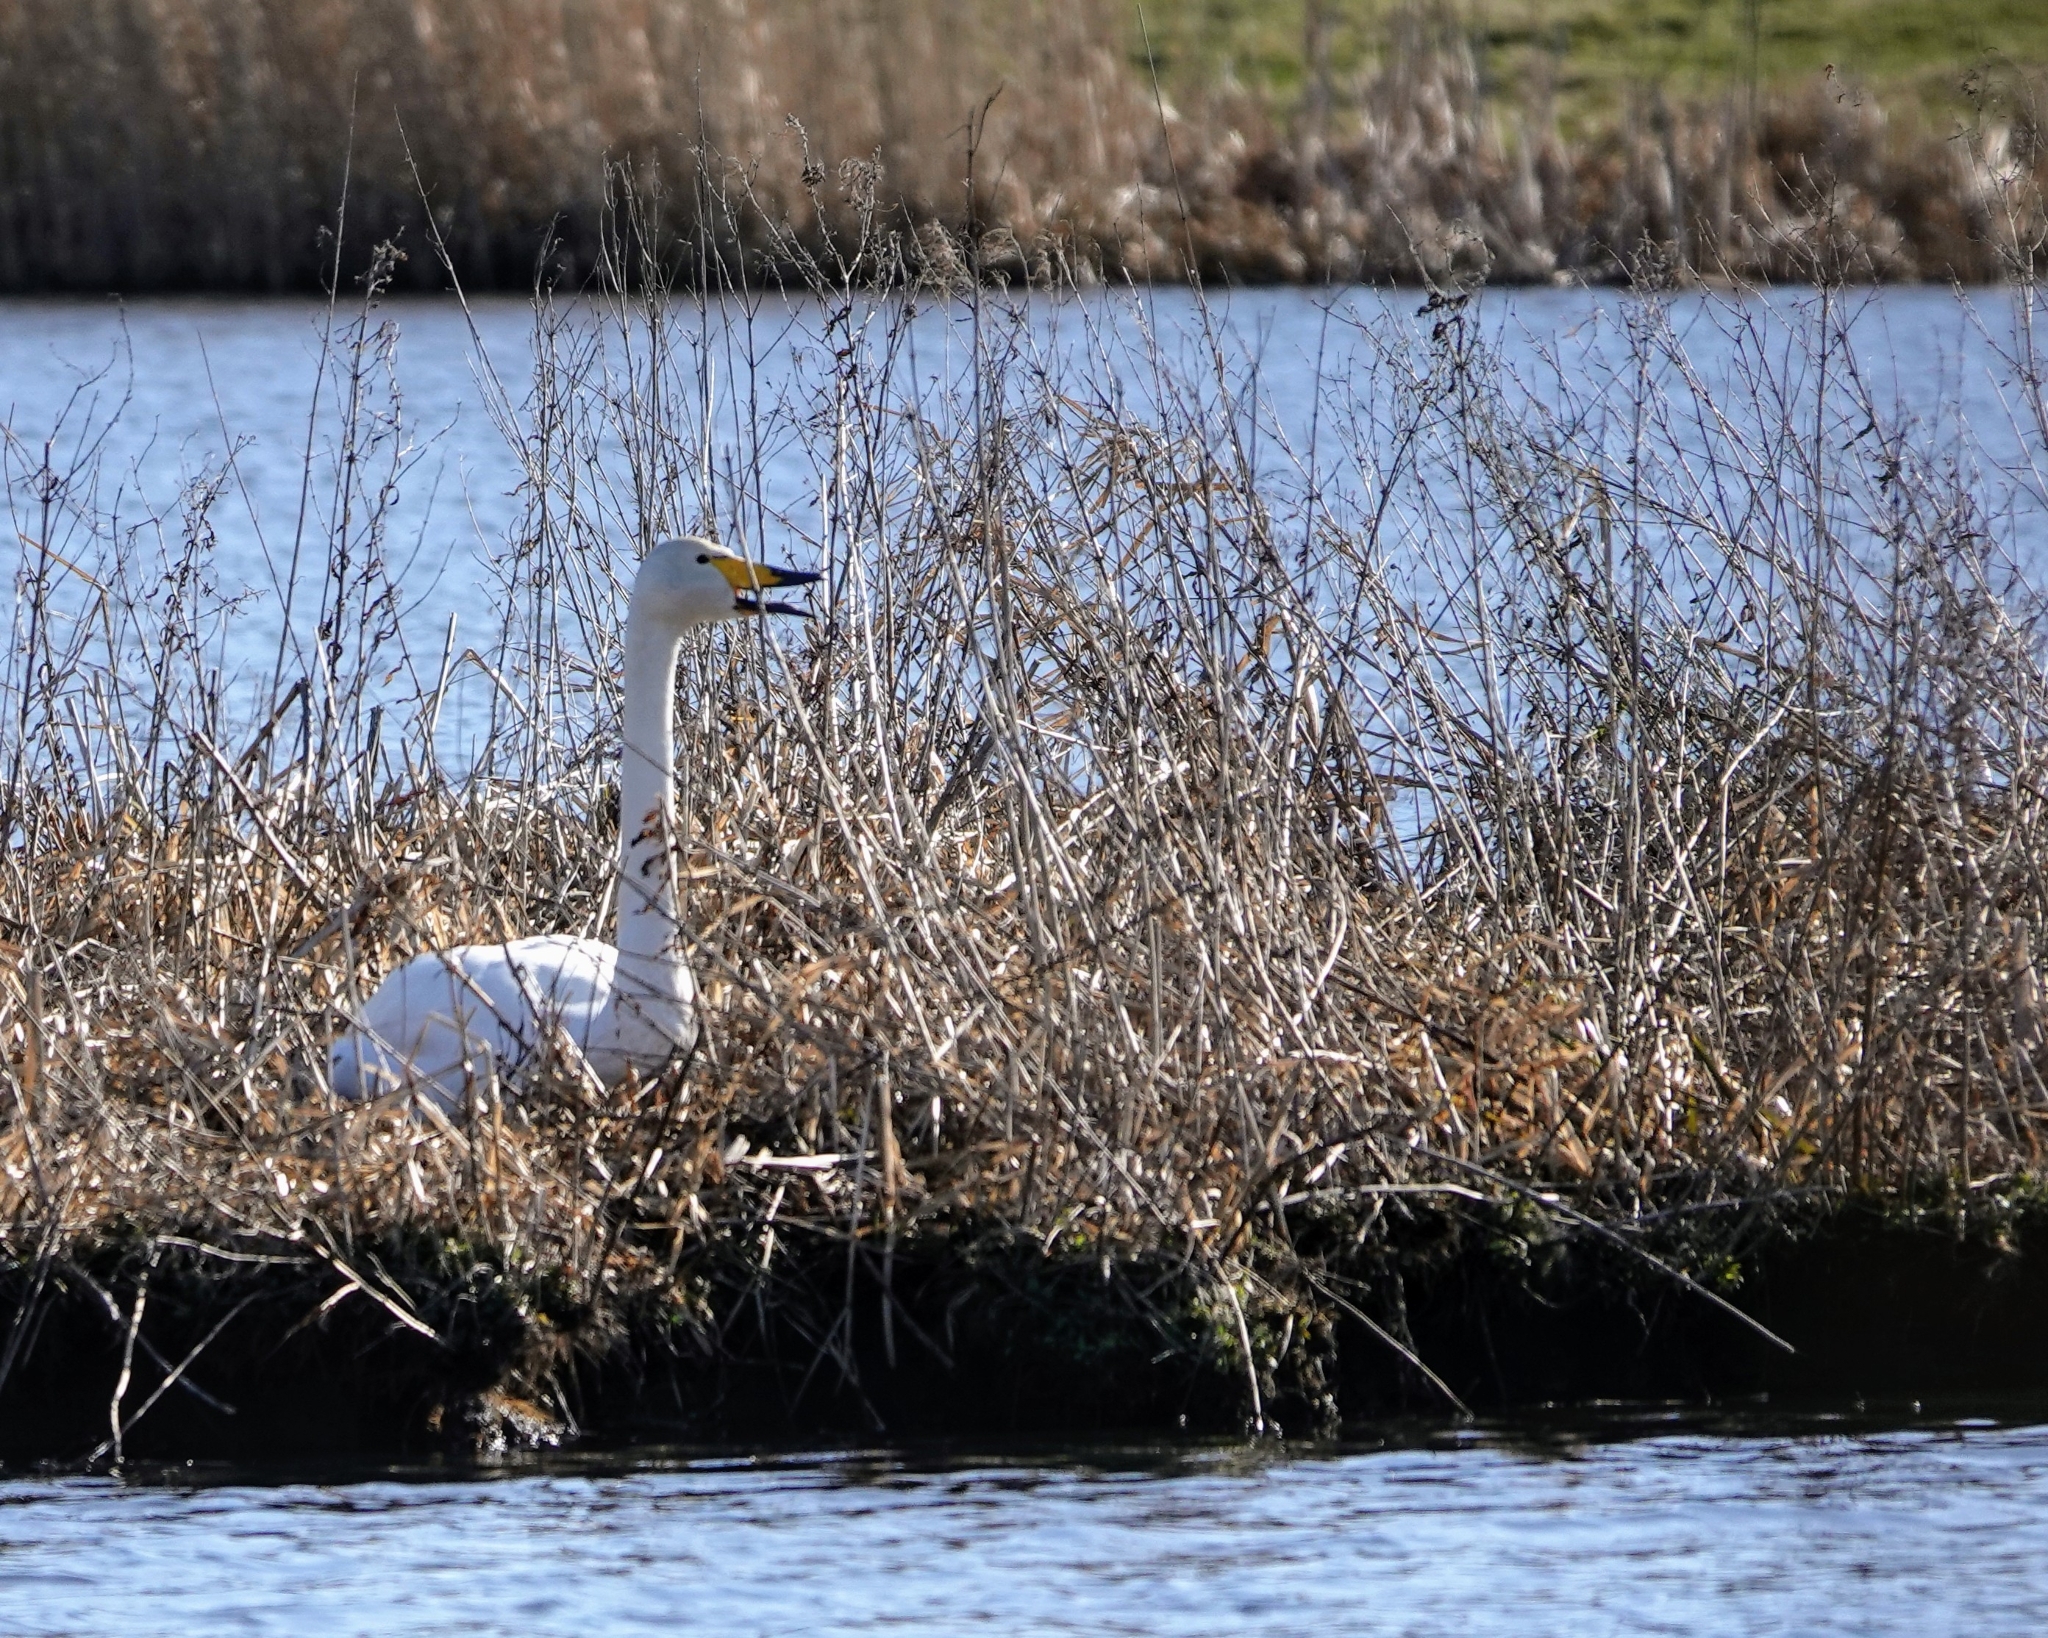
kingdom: Animalia
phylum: Chordata
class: Aves
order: Anseriformes
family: Anatidae
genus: Cygnus
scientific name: Cygnus cygnus
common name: Whooper swan
